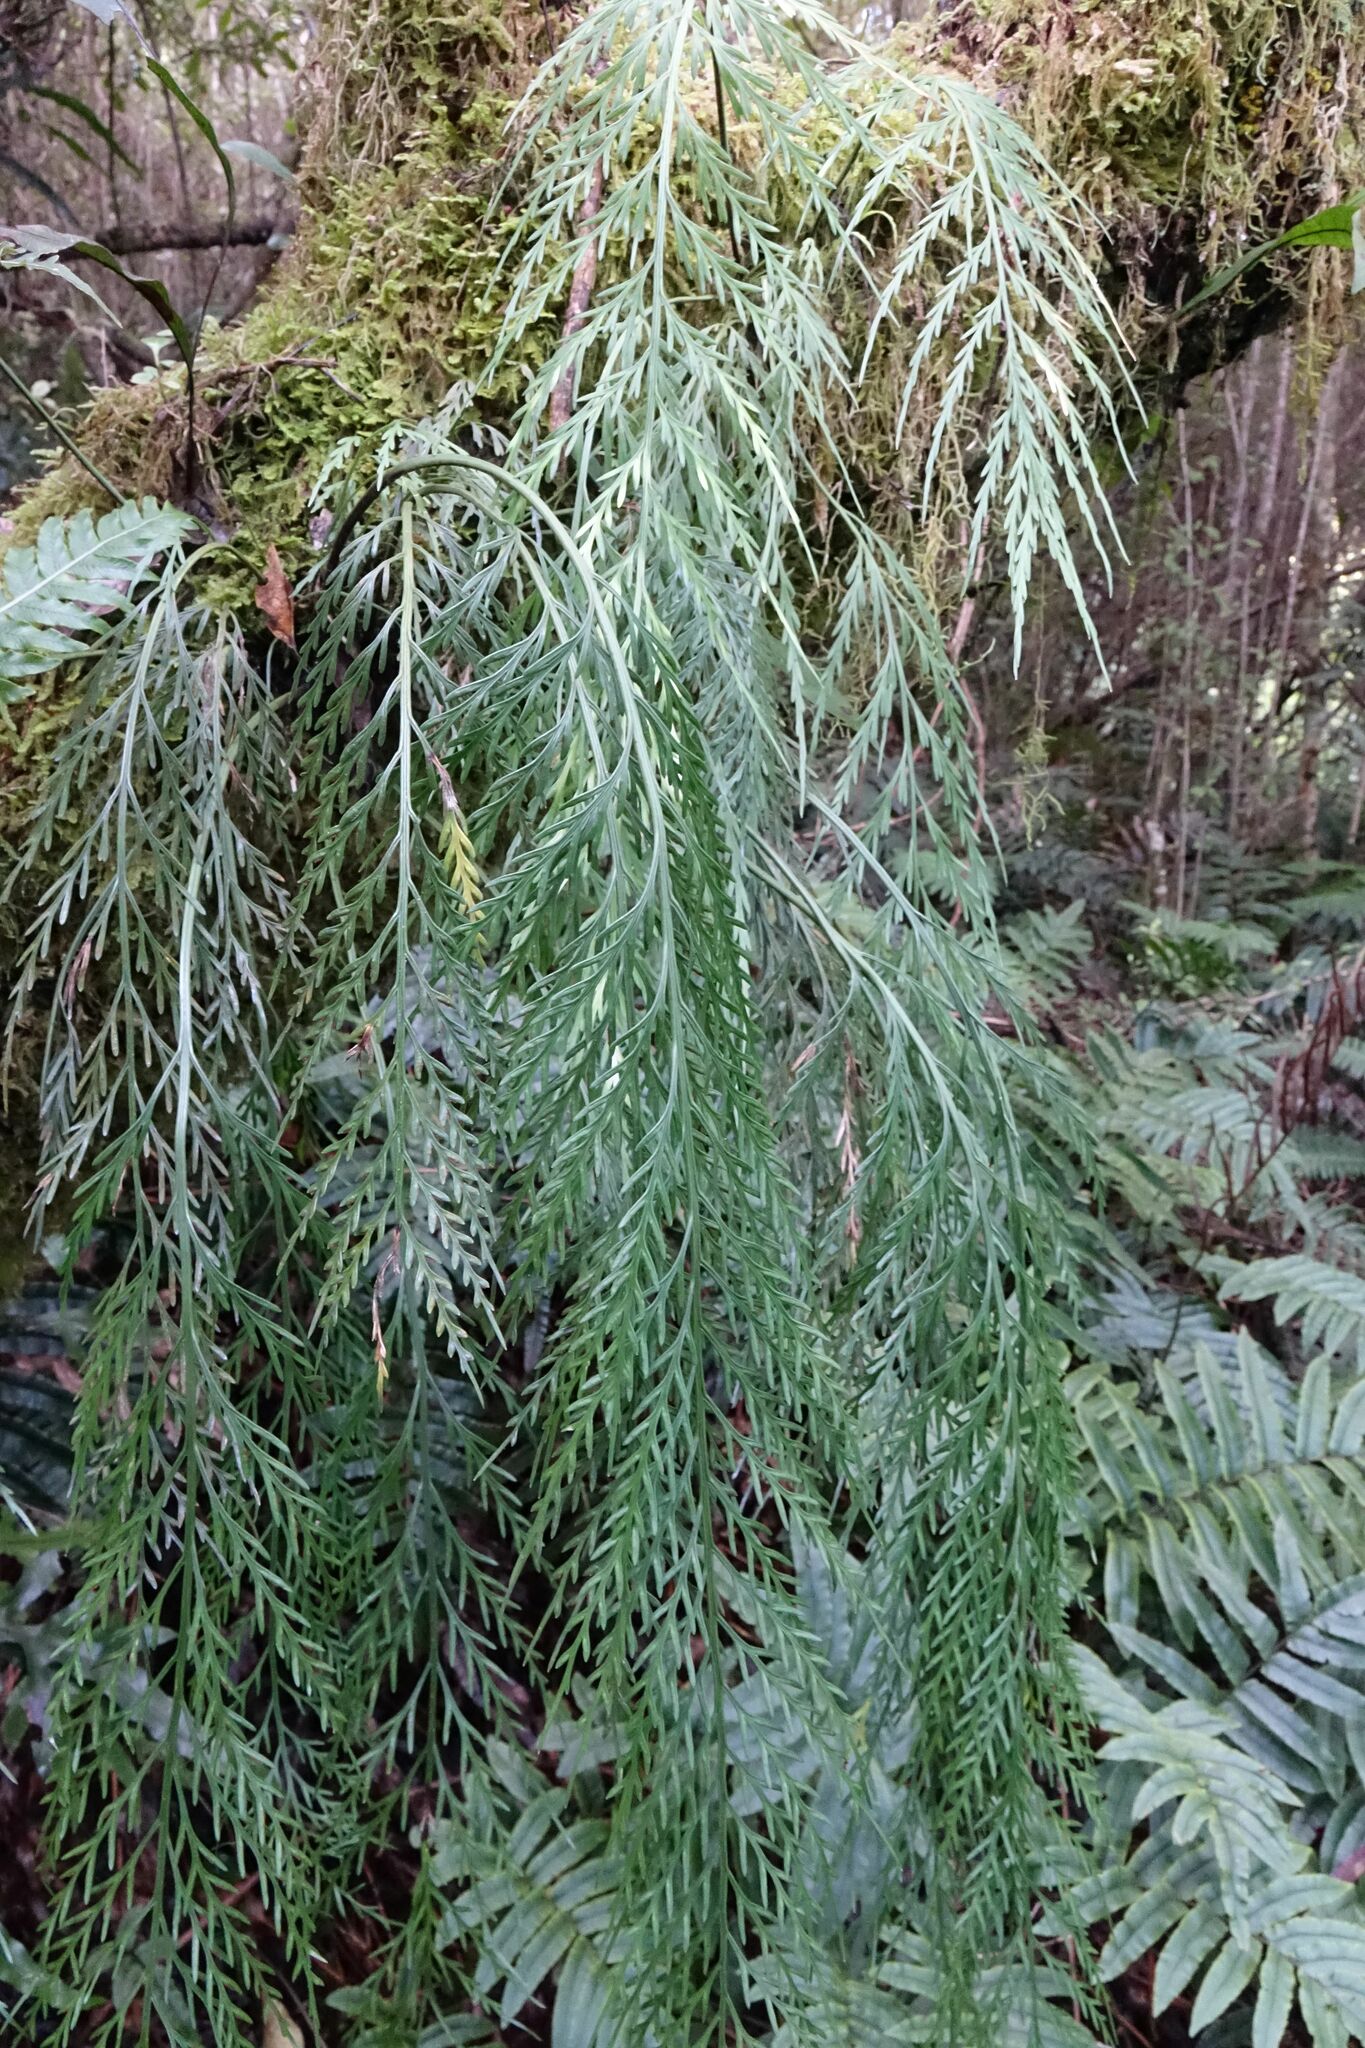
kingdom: Plantae
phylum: Tracheophyta
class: Polypodiopsida
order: Polypodiales
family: Aspleniaceae
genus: Asplenium
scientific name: Asplenium flaccidum
